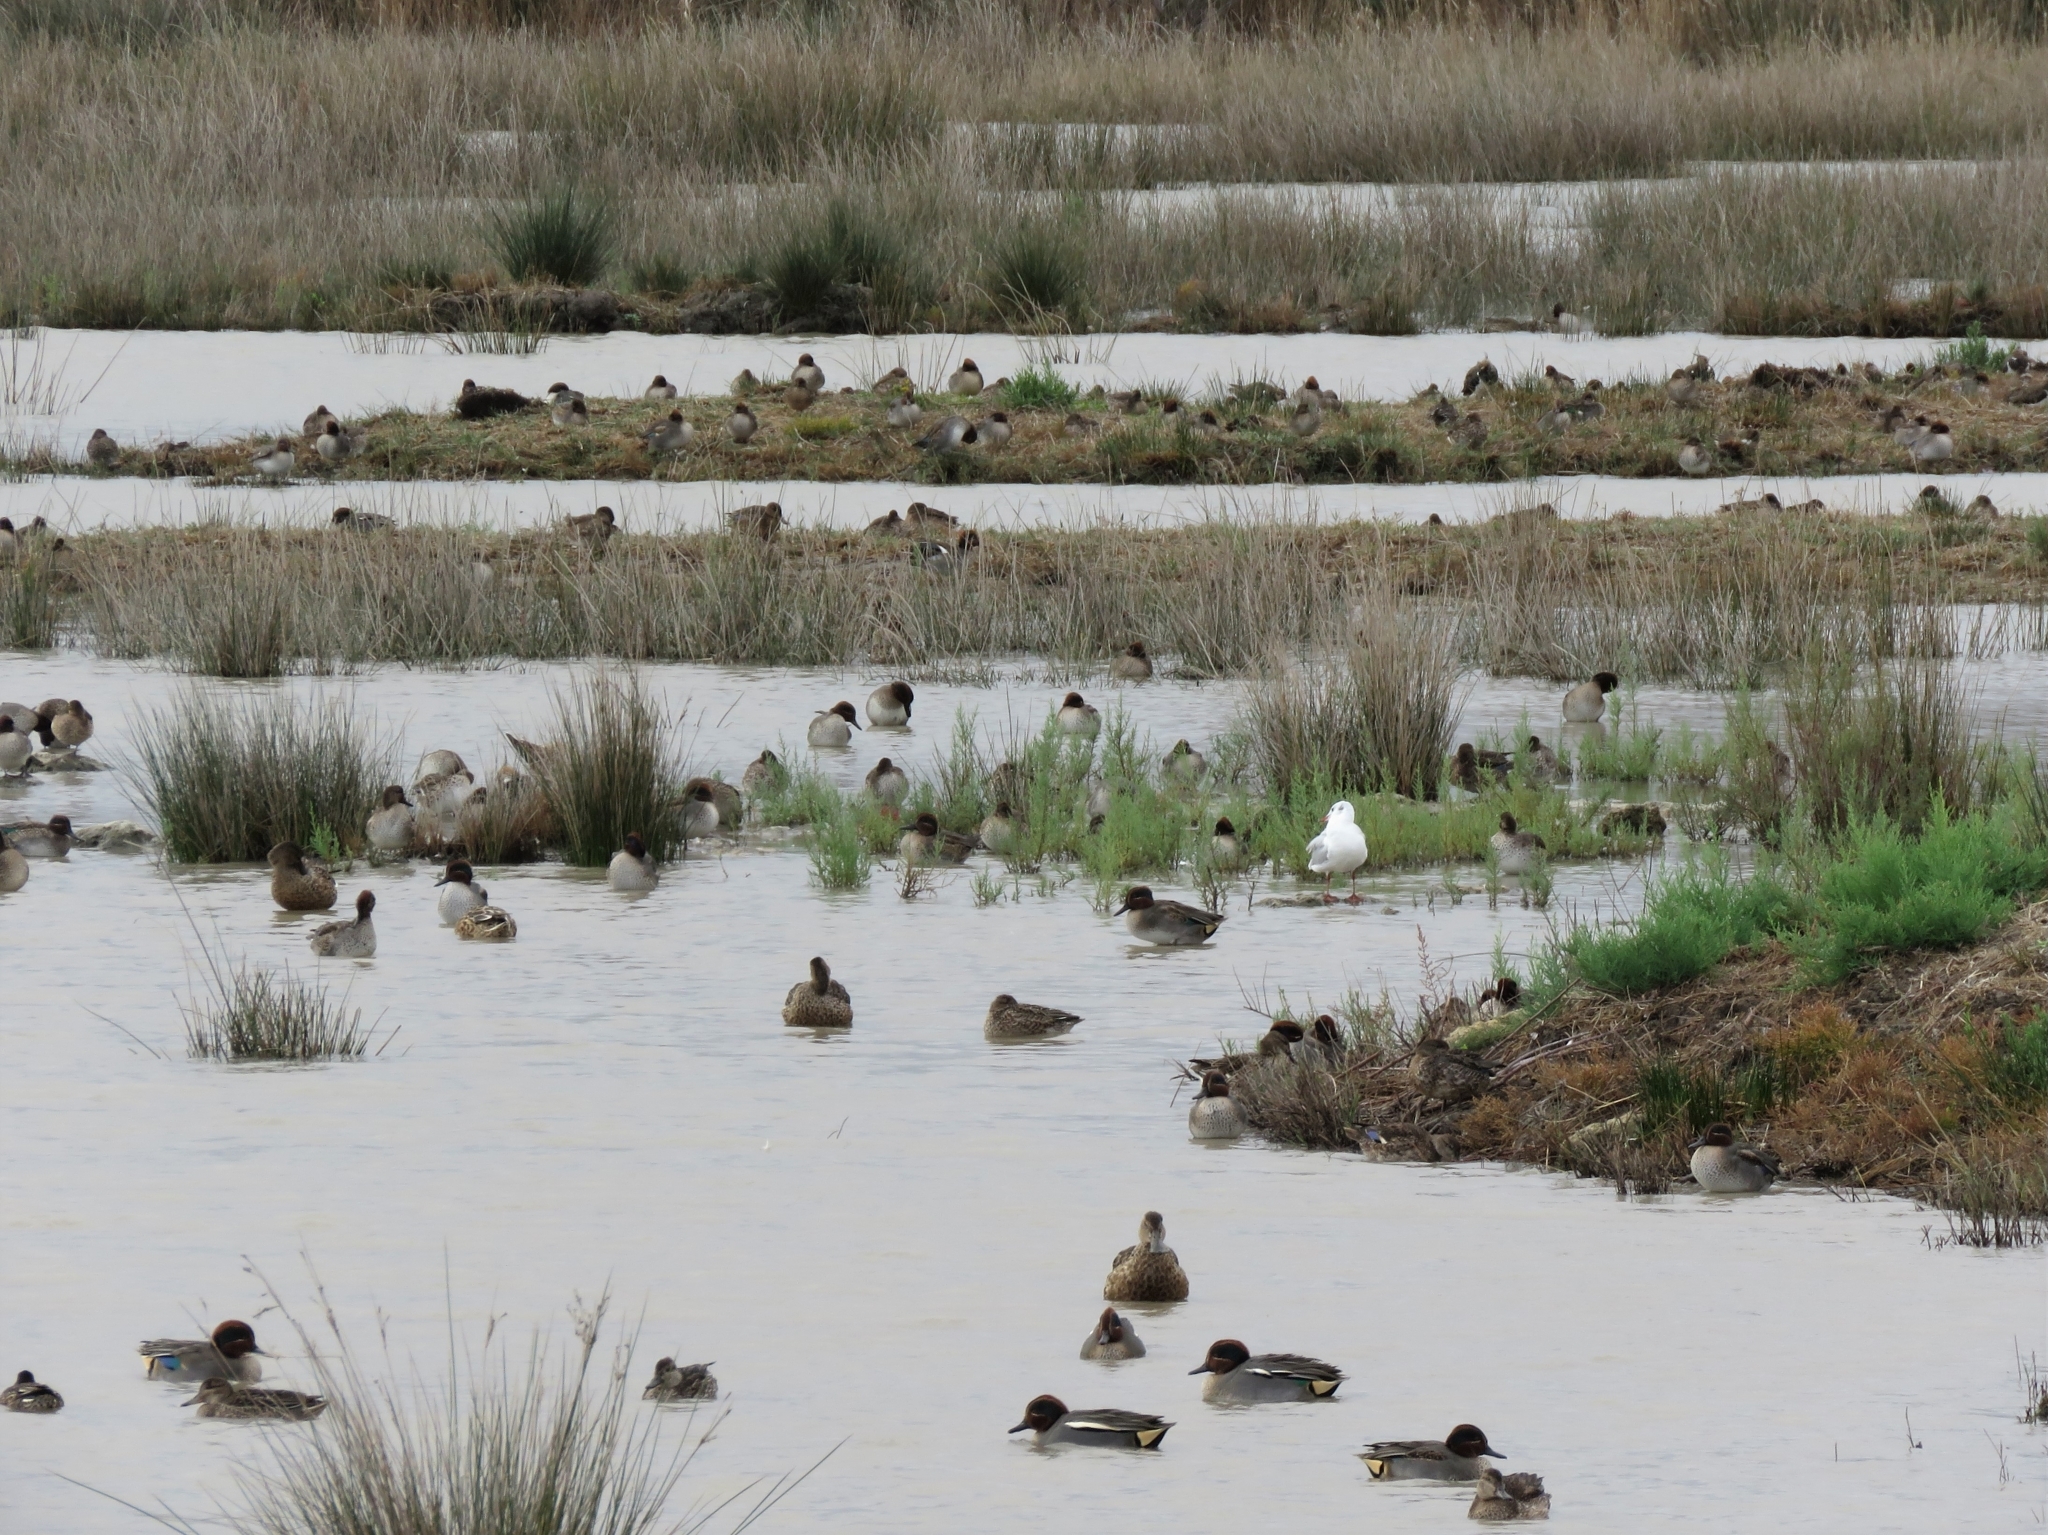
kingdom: Animalia
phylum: Chordata
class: Aves
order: Anseriformes
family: Anatidae
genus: Anas
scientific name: Anas crecca
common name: Eurasian teal
